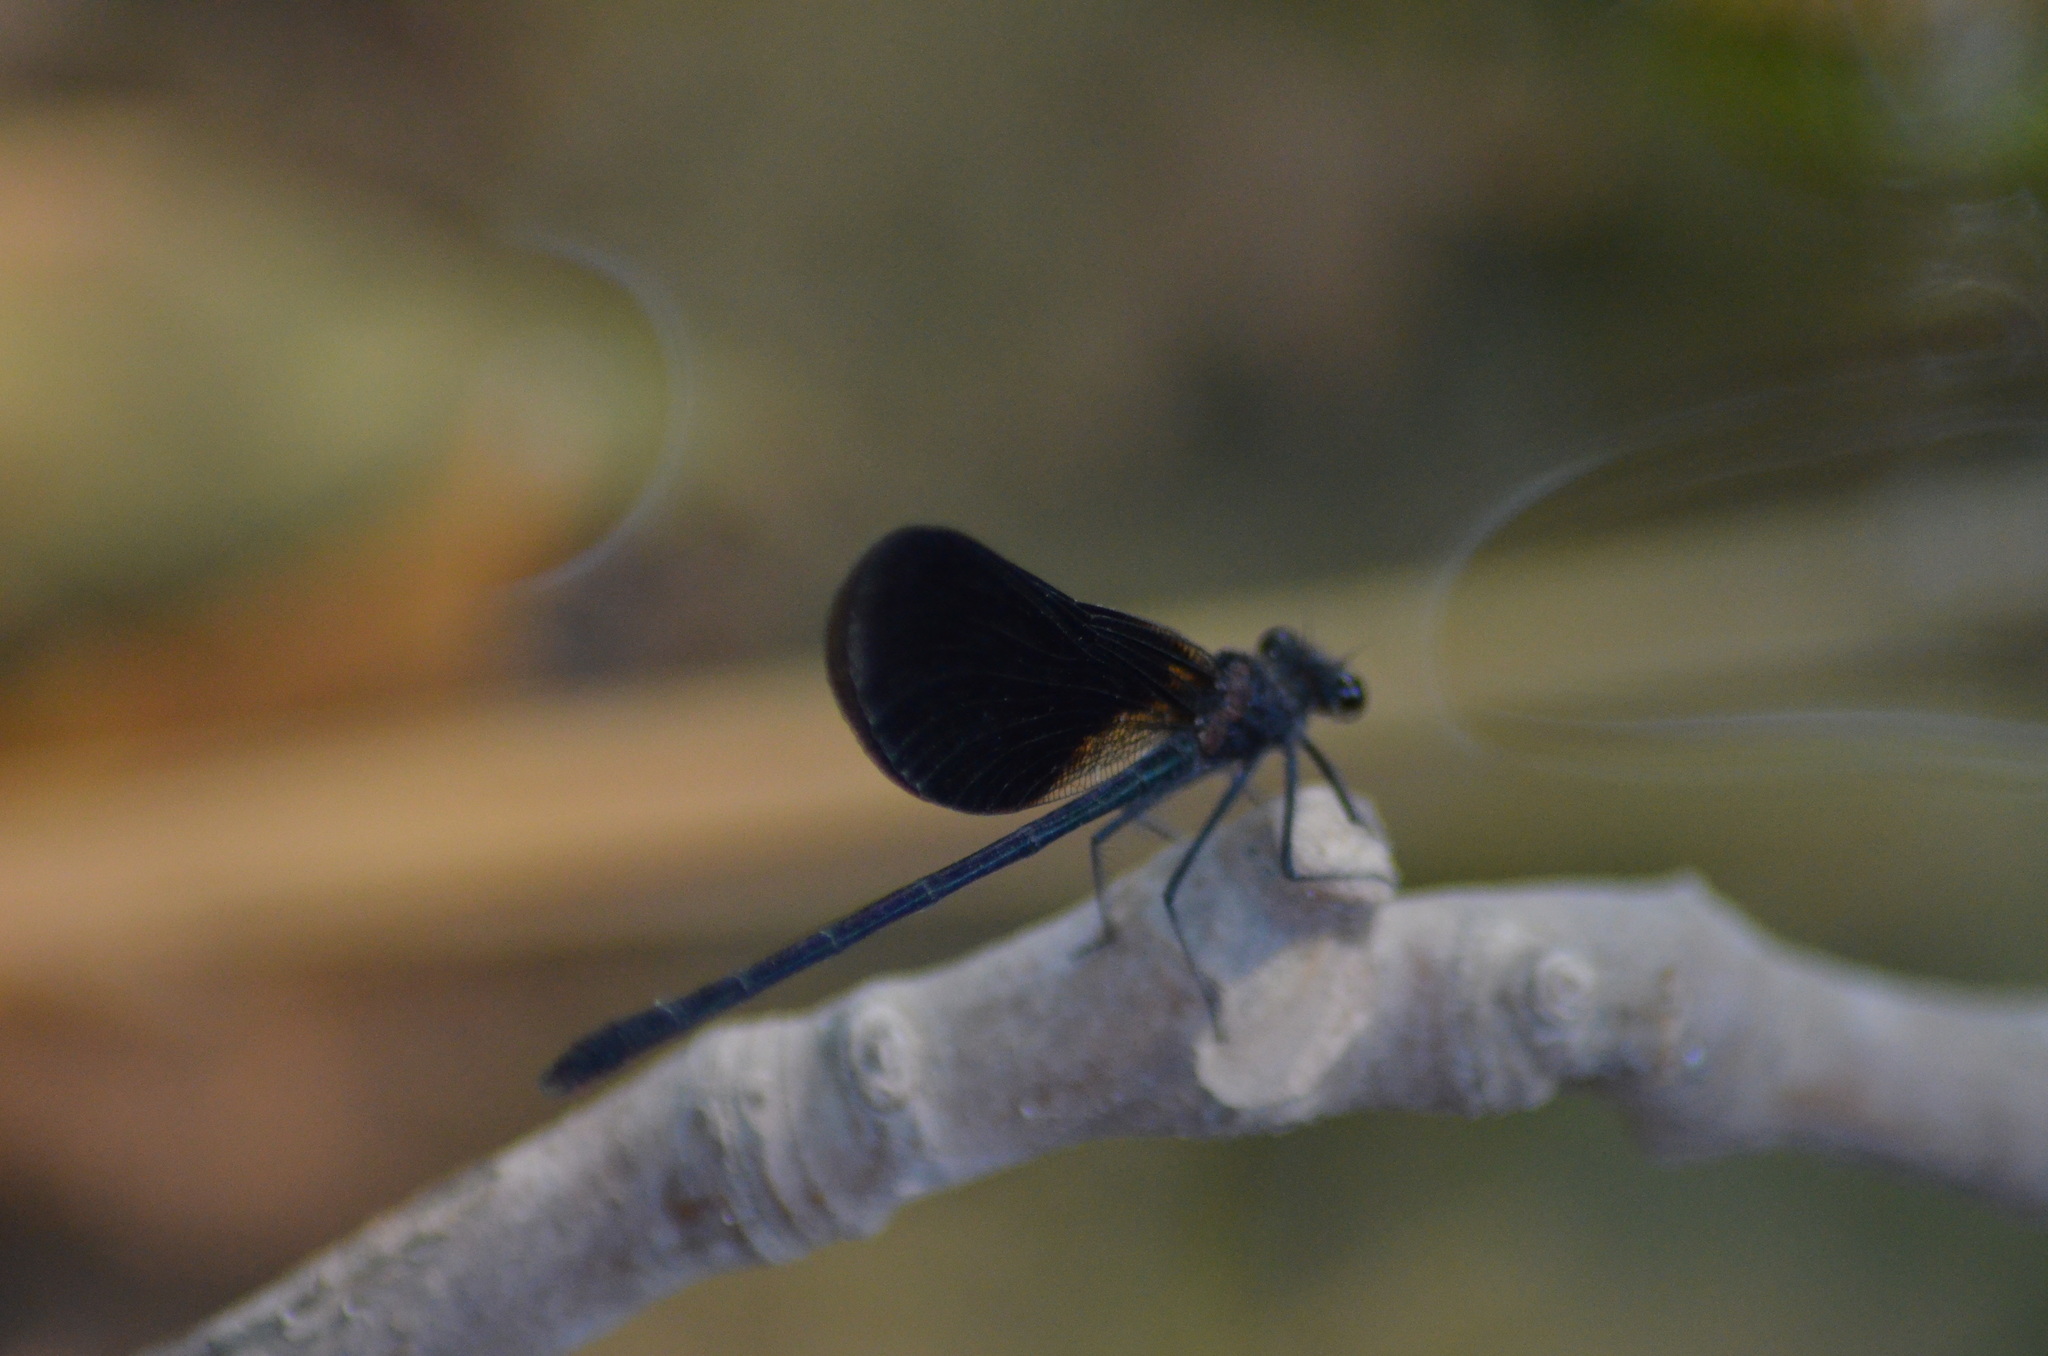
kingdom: Animalia
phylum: Arthropoda
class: Insecta
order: Odonata
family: Calopterygidae
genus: Calopteryx
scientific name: Calopteryx haemorrhoidalis
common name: Copper demoiselle
